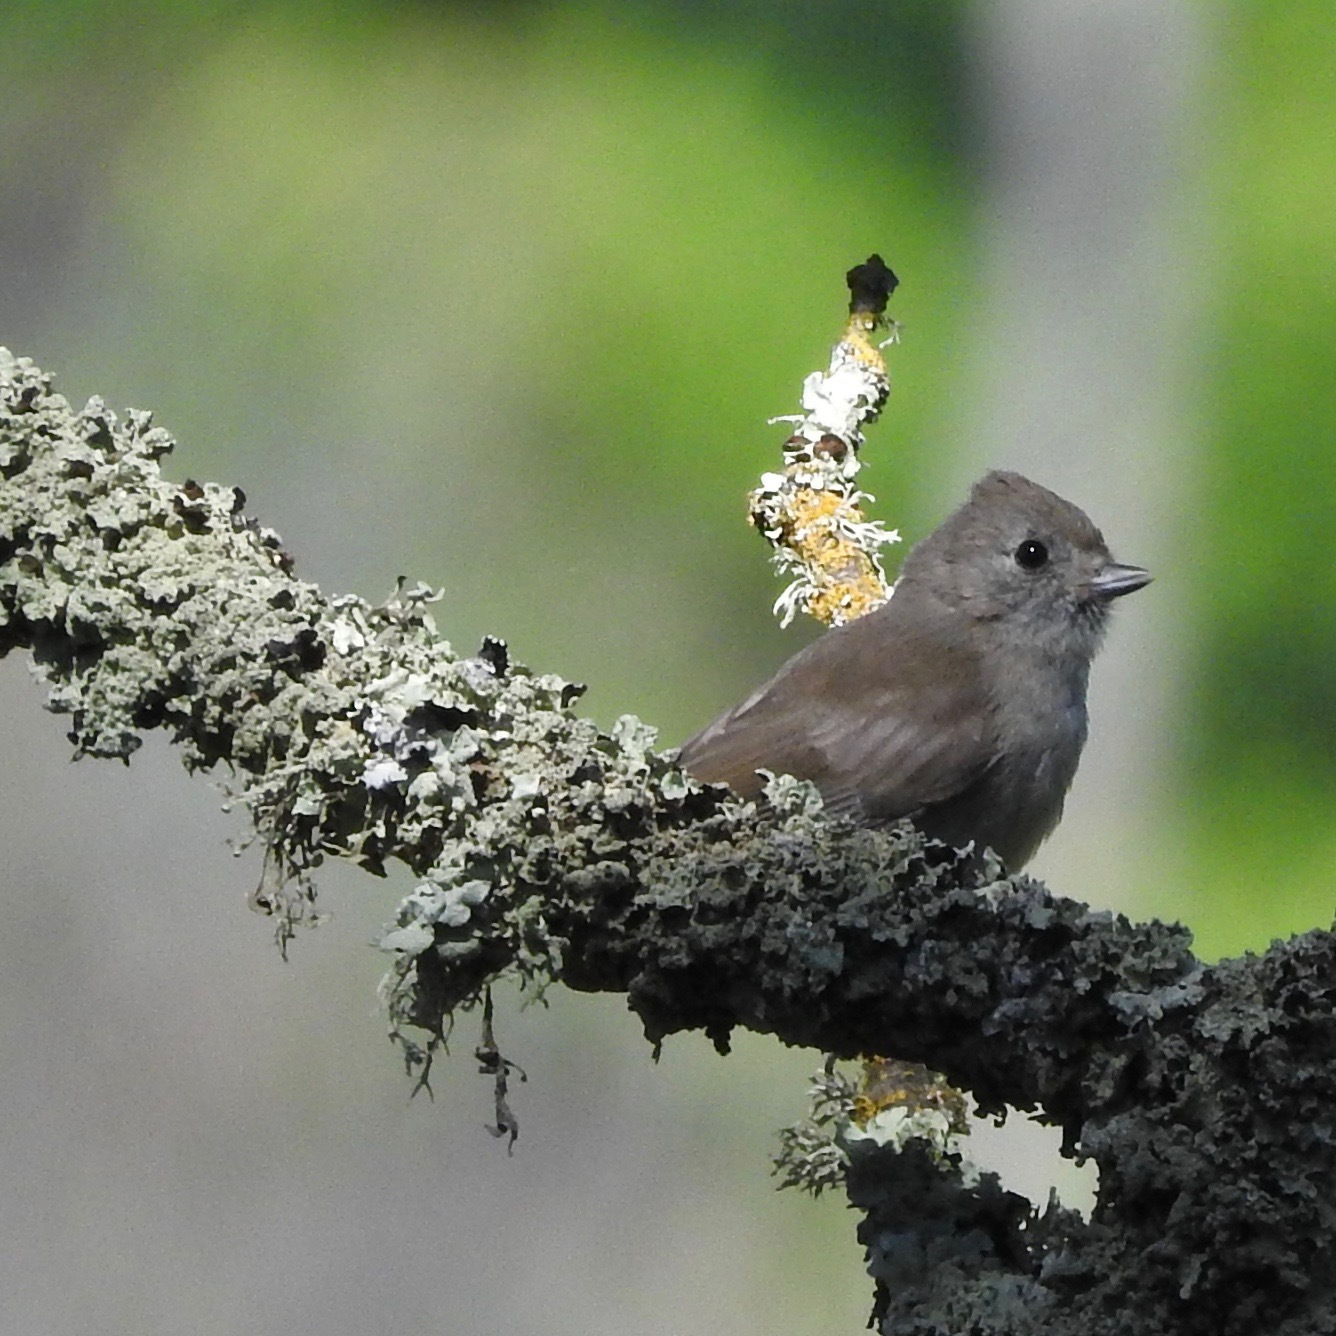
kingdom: Animalia
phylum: Chordata
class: Aves
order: Passeriformes
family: Paridae
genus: Baeolophus
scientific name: Baeolophus inornatus
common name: Oak titmouse
